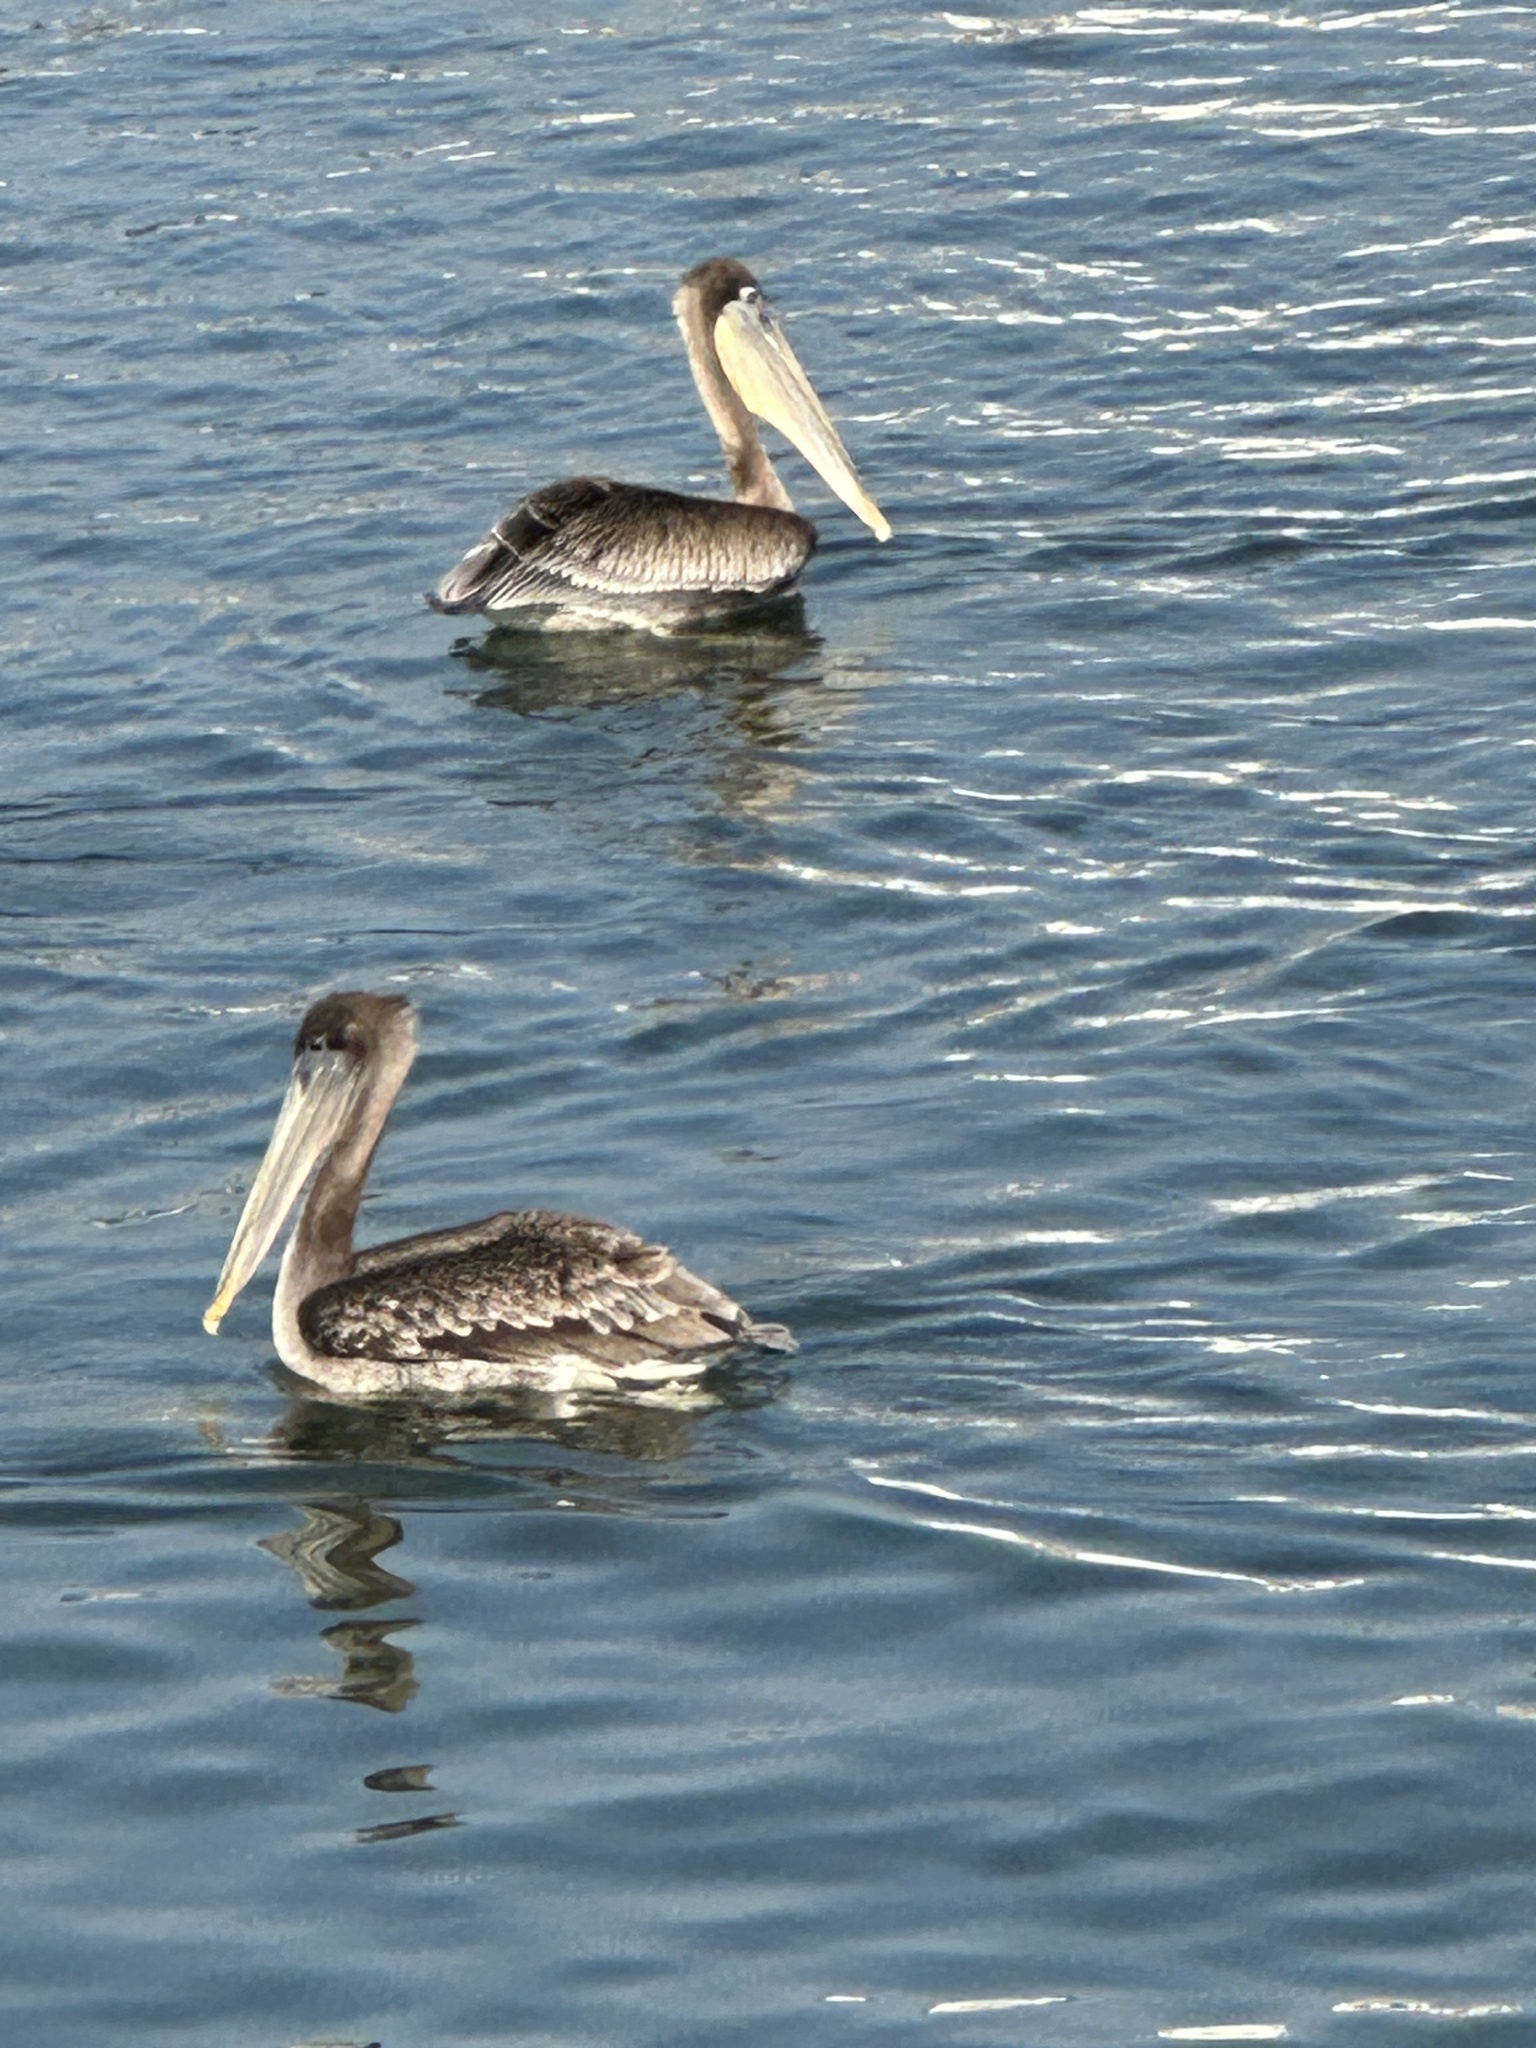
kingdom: Animalia
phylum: Chordata
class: Aves
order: Pelecaniformes
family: Pelecanidae
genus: Pelecanus
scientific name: Pelecanus occidentalis
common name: Brown pelican
